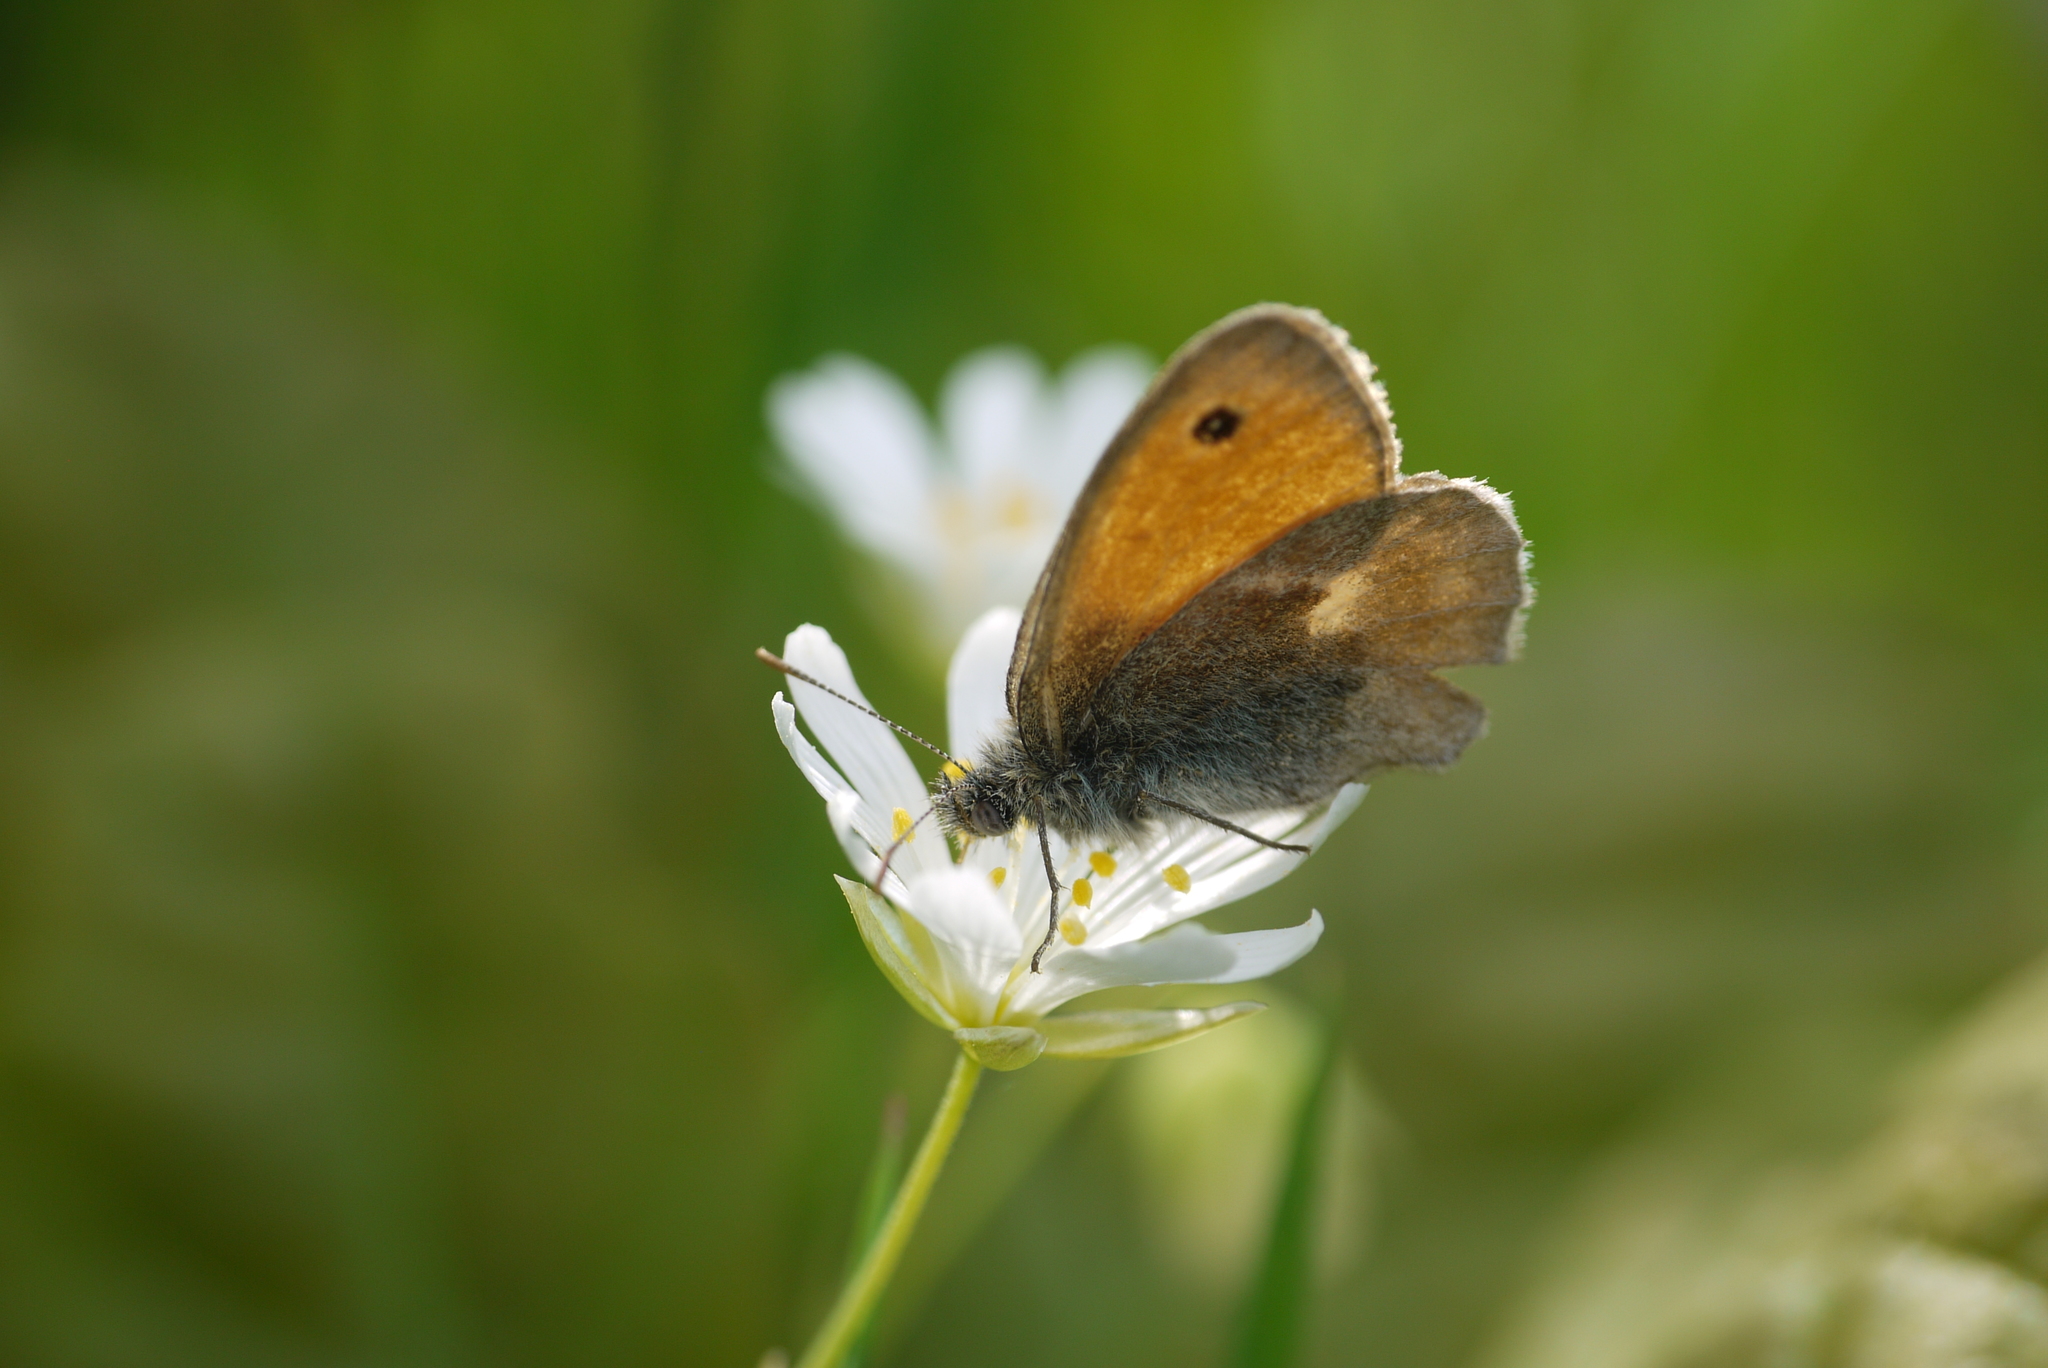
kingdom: Animalia
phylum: Arthropoda
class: Insecta
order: Lepidoptera
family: Nymphalidae
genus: Coenonympha
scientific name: Coenonympha pamphilus
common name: Small heath
